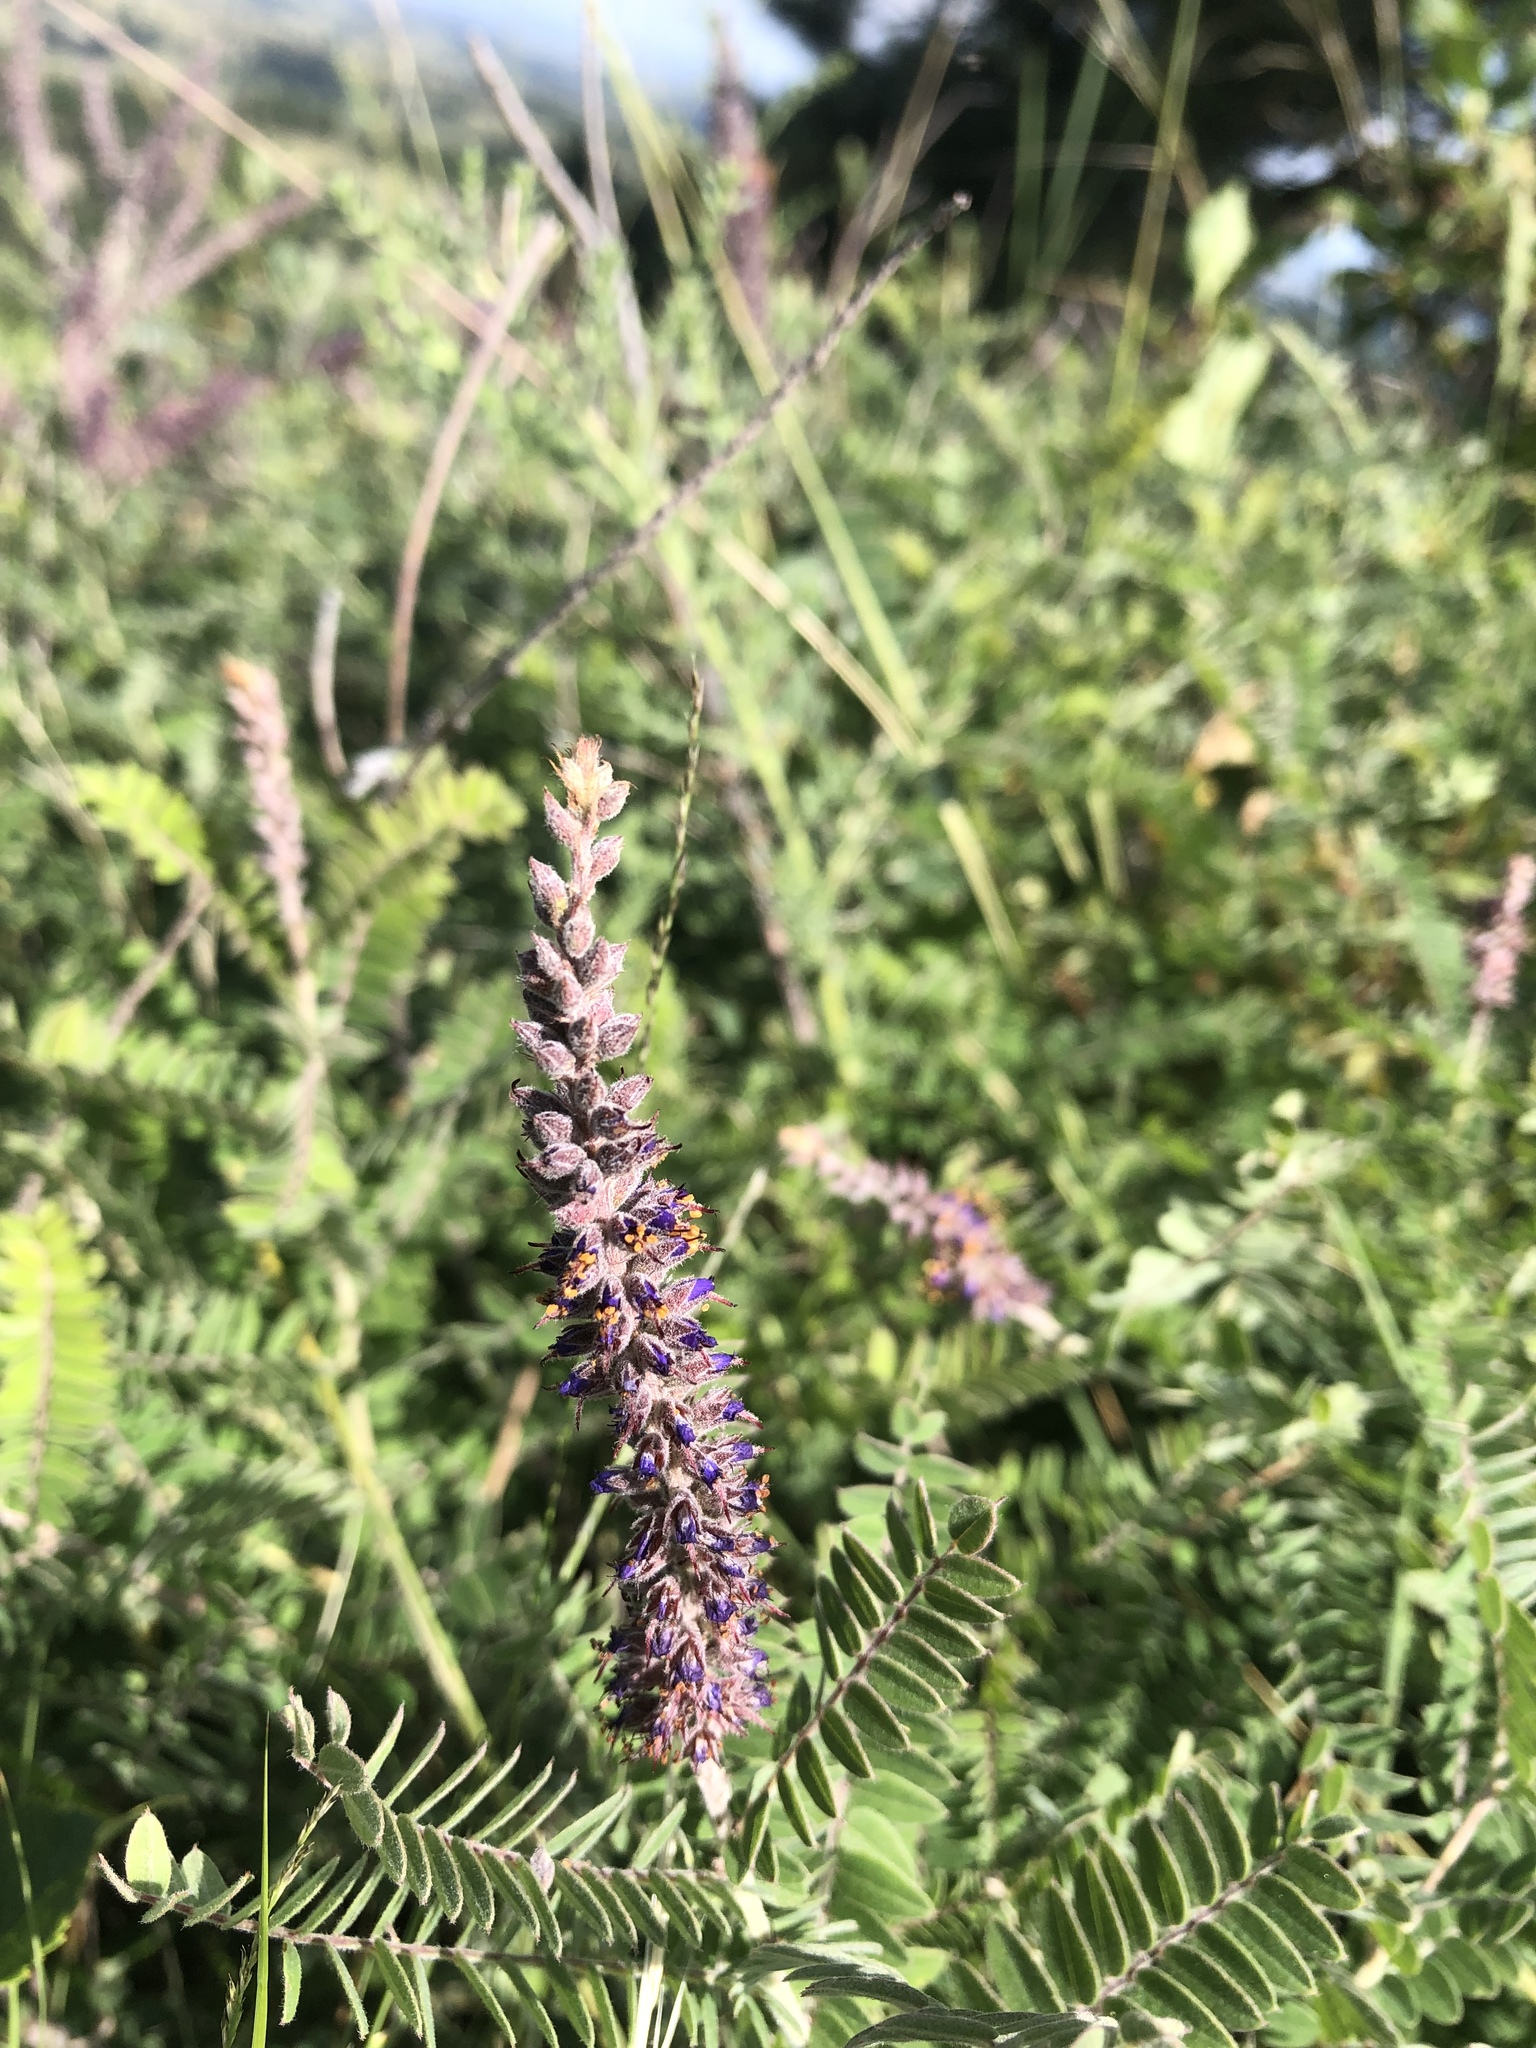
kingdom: Plantae
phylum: Tracheophyta
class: Magnoliopsida
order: Fabales
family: Fabaceae
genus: Amorpha
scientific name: Amorpha canescens
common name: Leadplant
